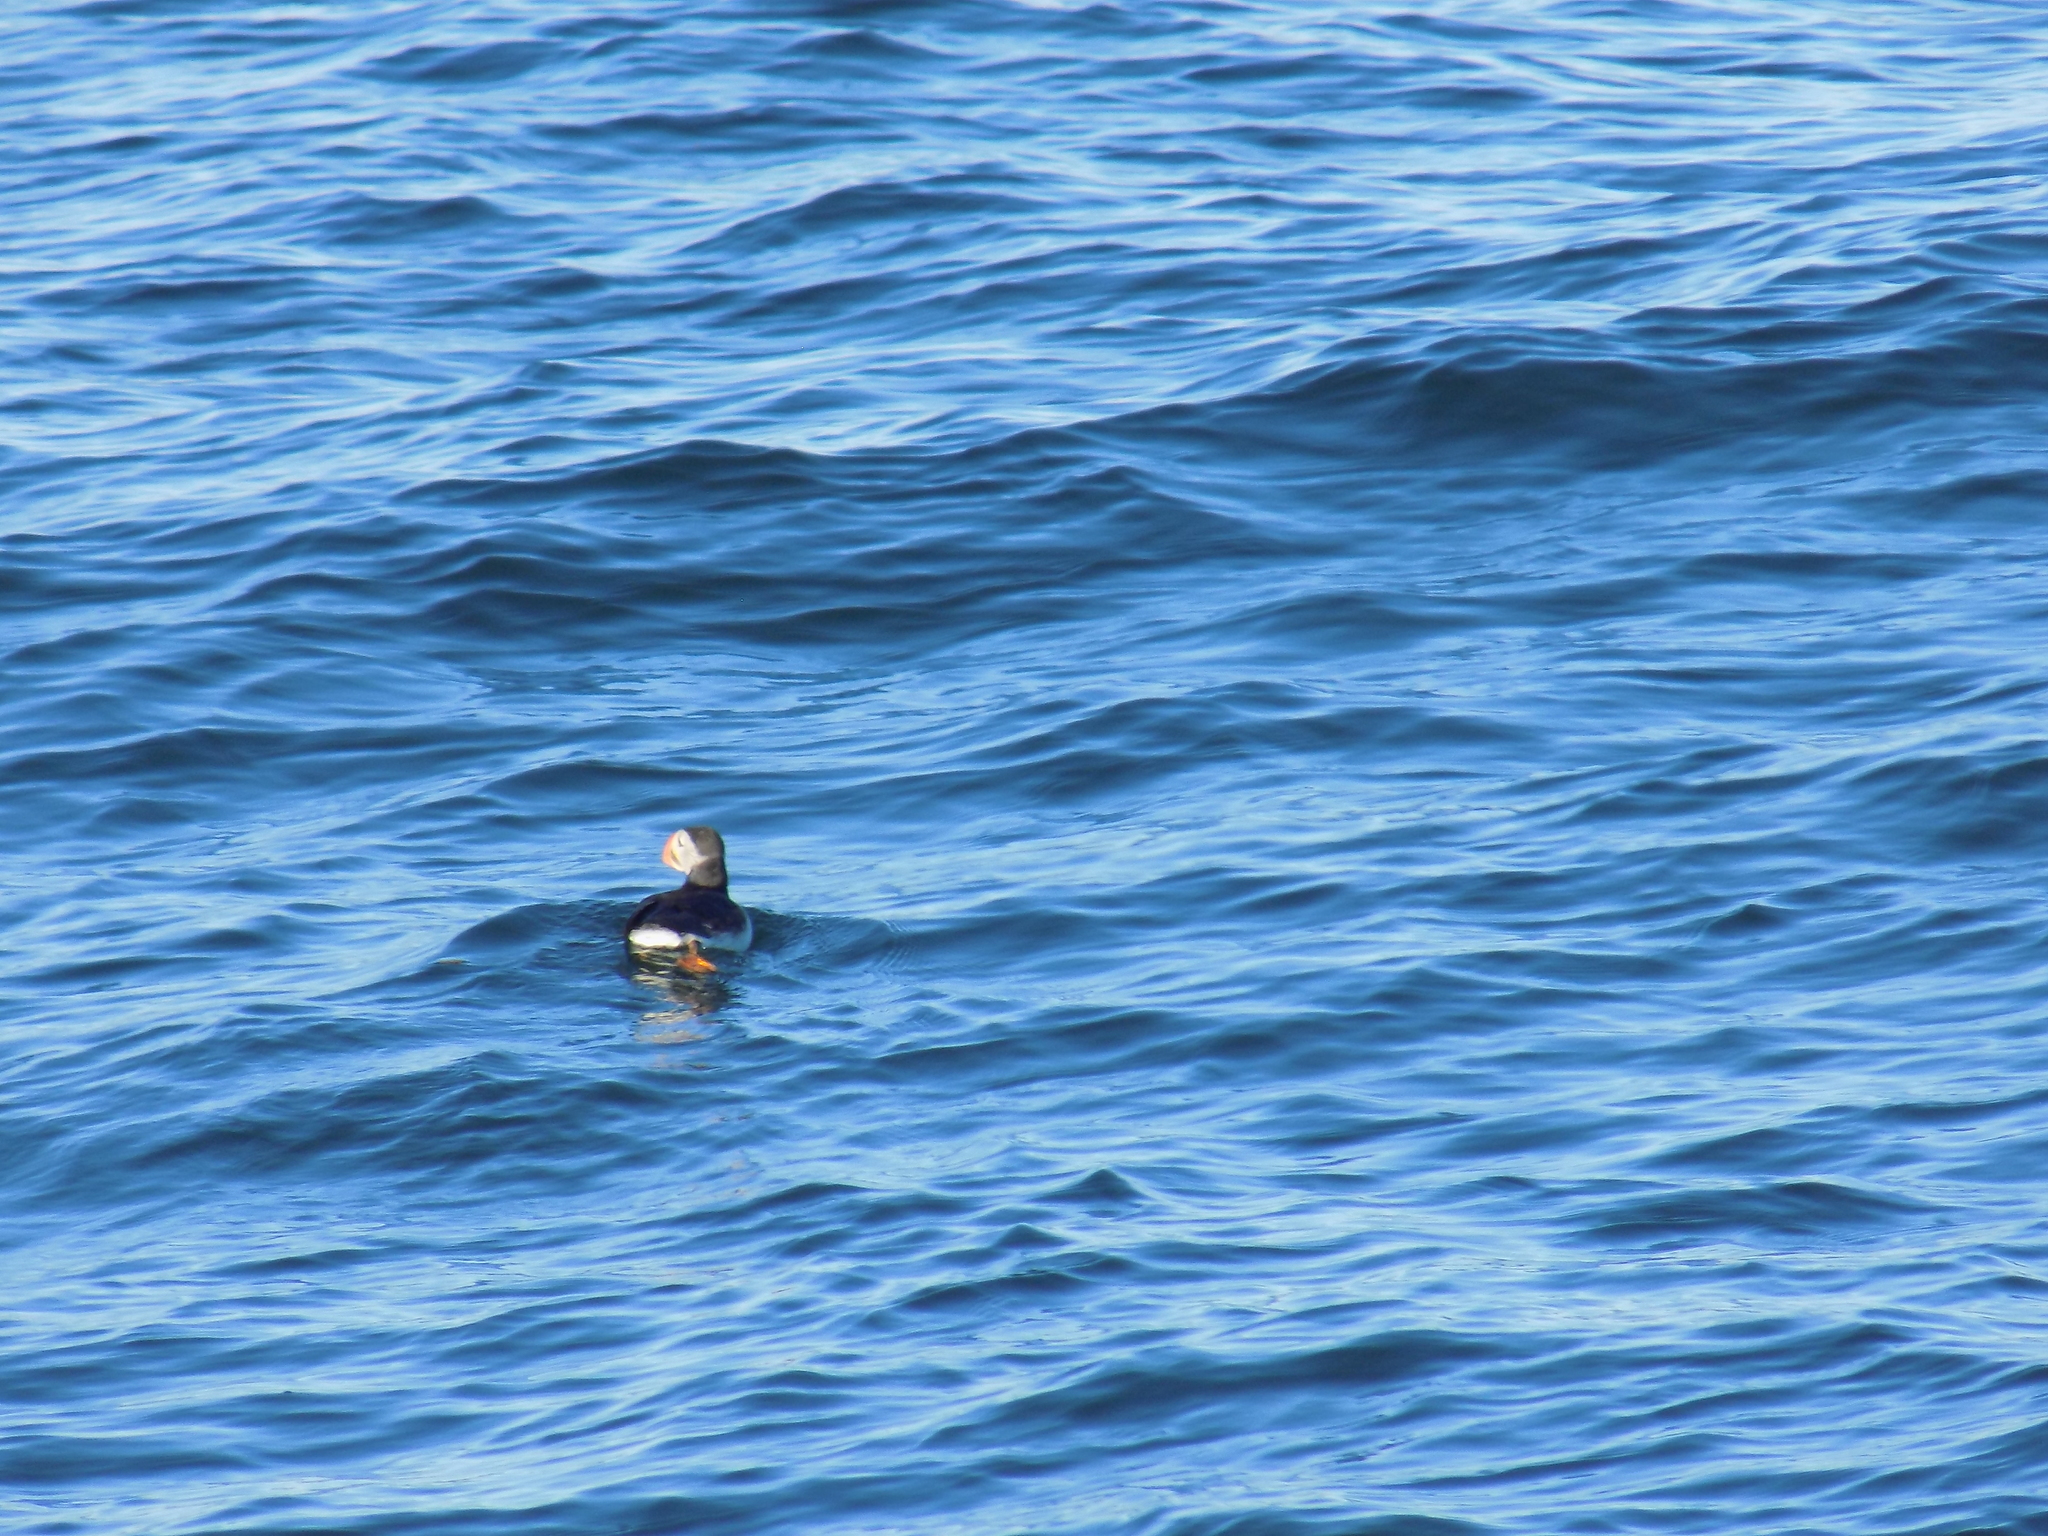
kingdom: Animalia
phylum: Chordata
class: Aves
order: Charadriiformes
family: Alcidae
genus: Fratercula
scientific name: Fratercula arctica
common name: Atlantic puffin
